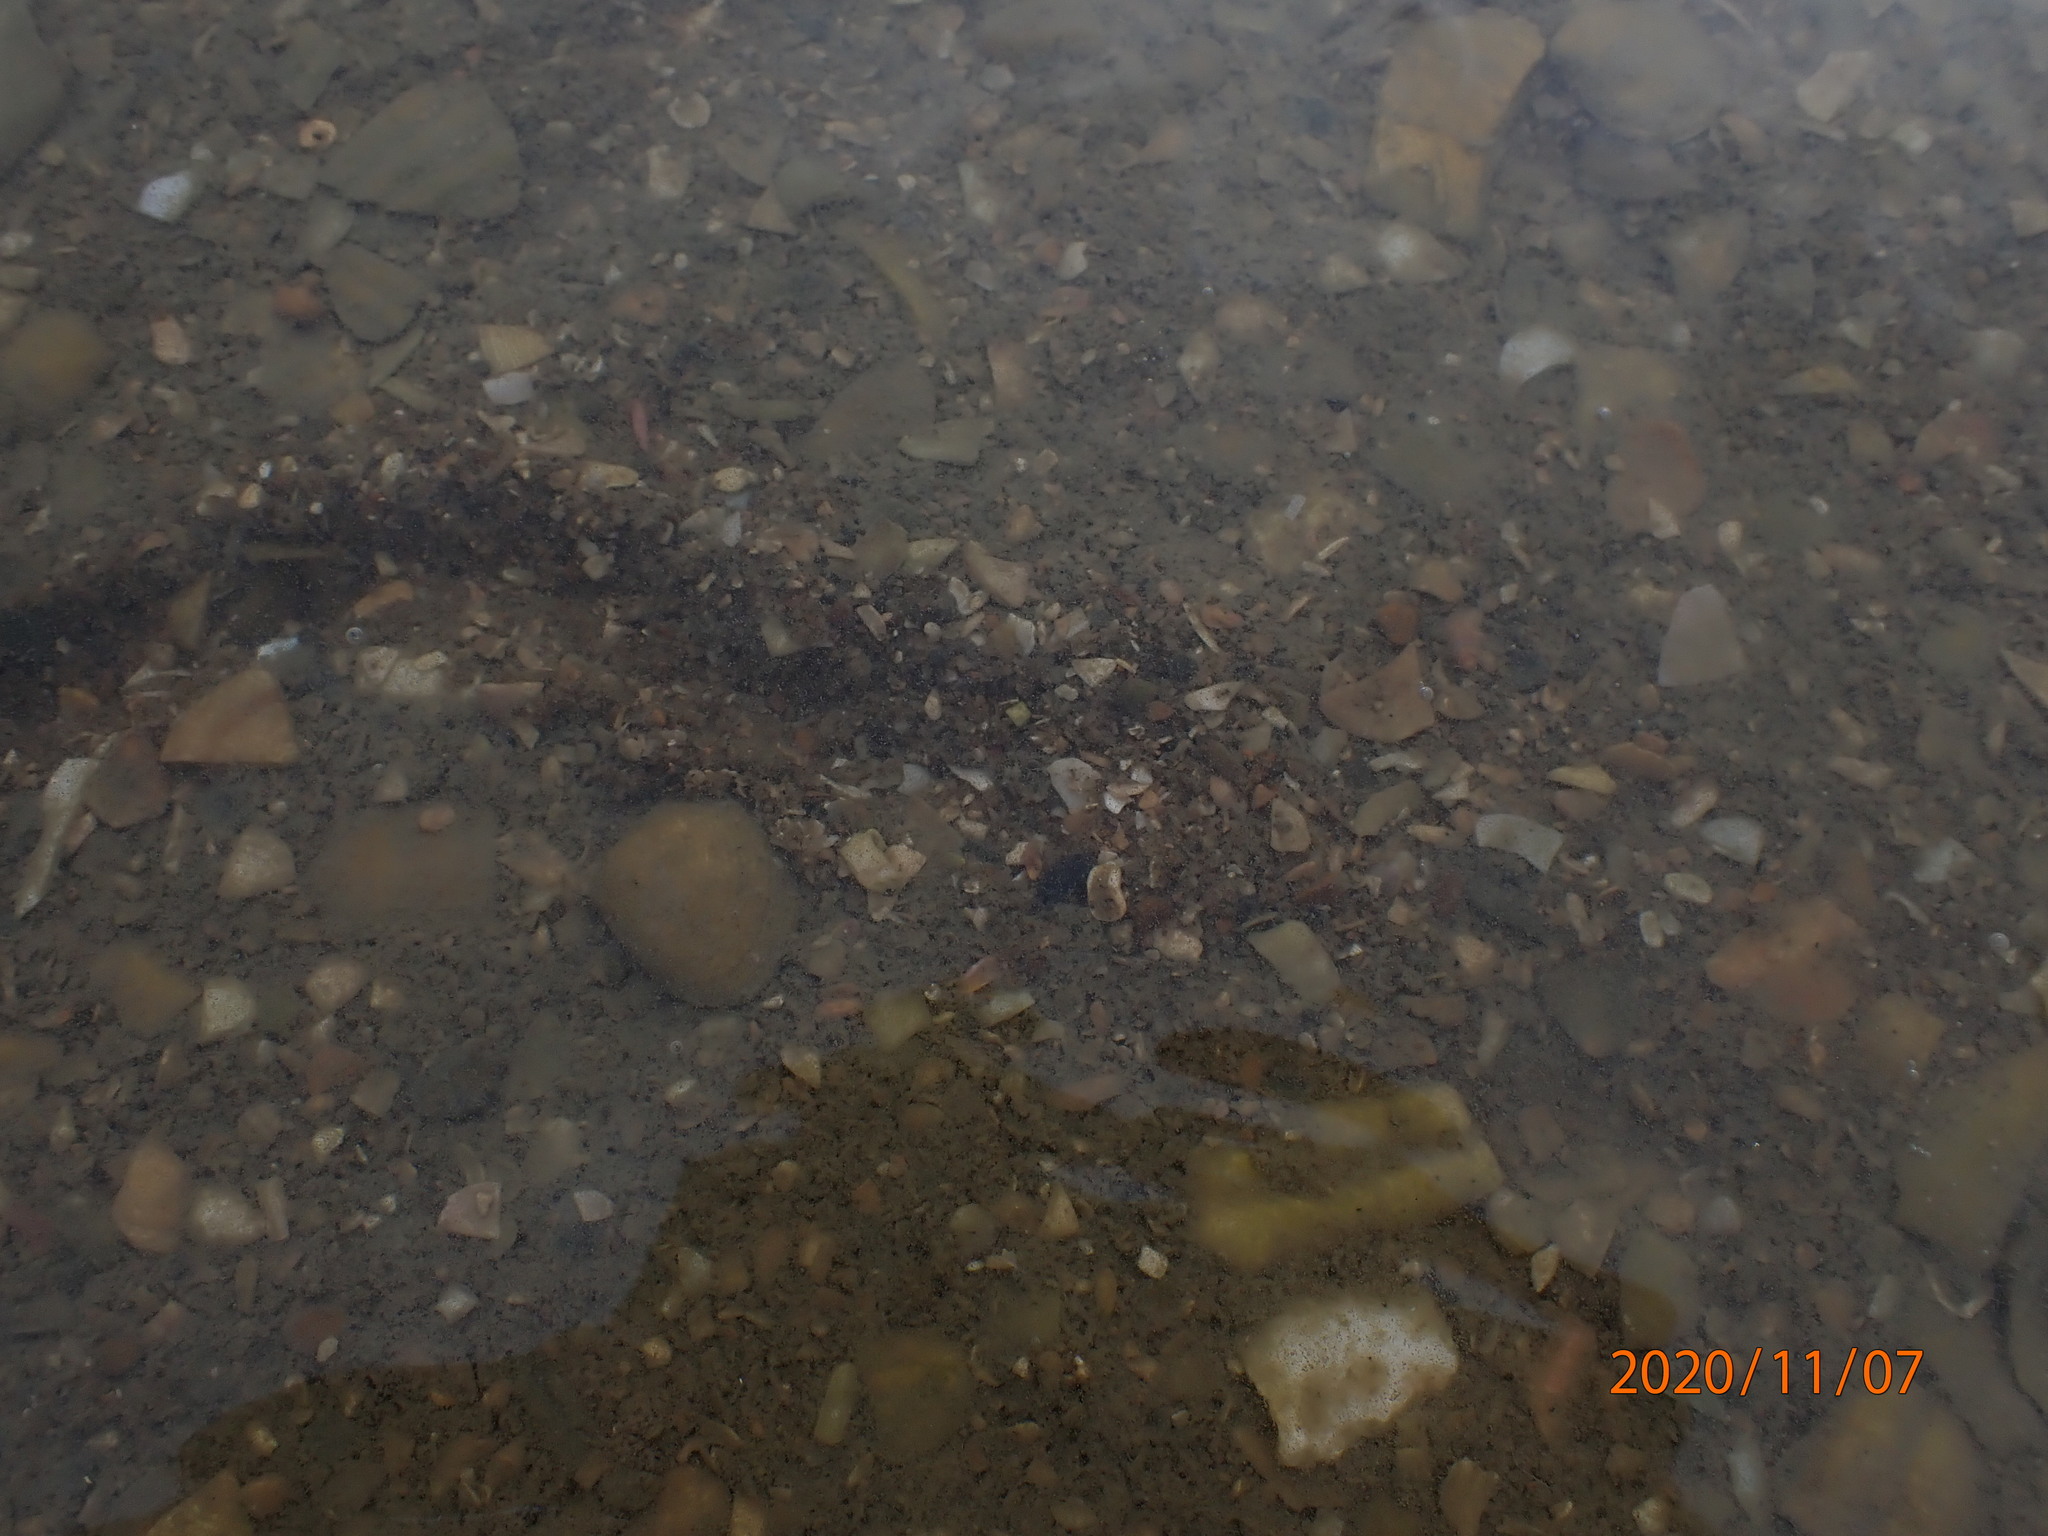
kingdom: Animalia
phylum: Mollusca
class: Bivalvia
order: Venerida
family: Veneridae
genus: Austrovenus
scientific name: Austrovenus stutchburyi
